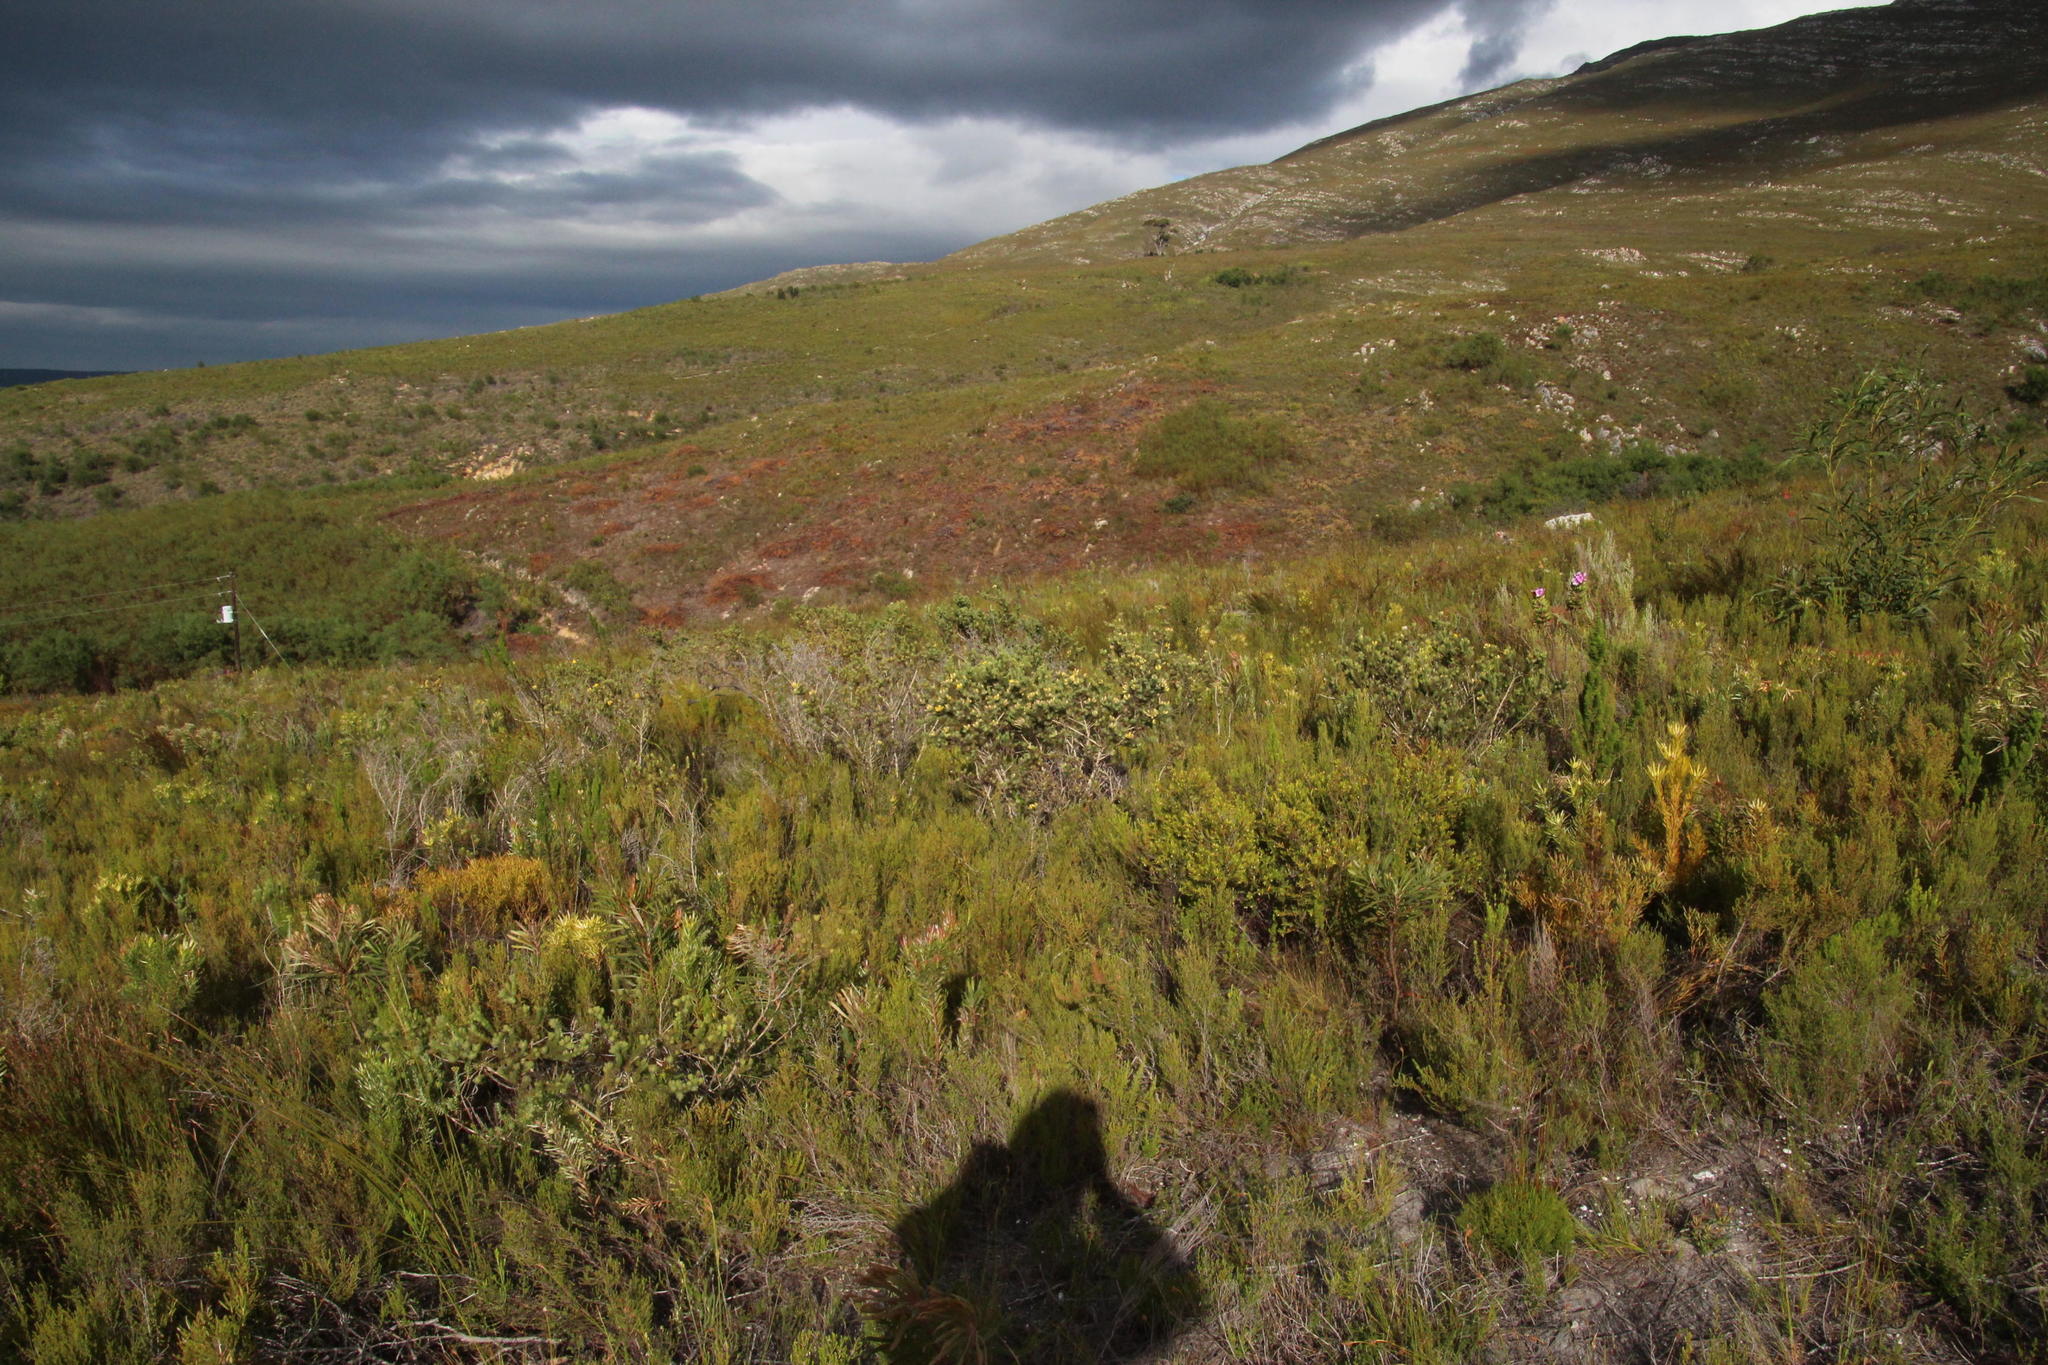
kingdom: Plantae
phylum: Tracheophyta
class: Magnoliopsida
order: Fabales
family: Fabaceae
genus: Acacia
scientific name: Acacia saligna
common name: Orange wattle
